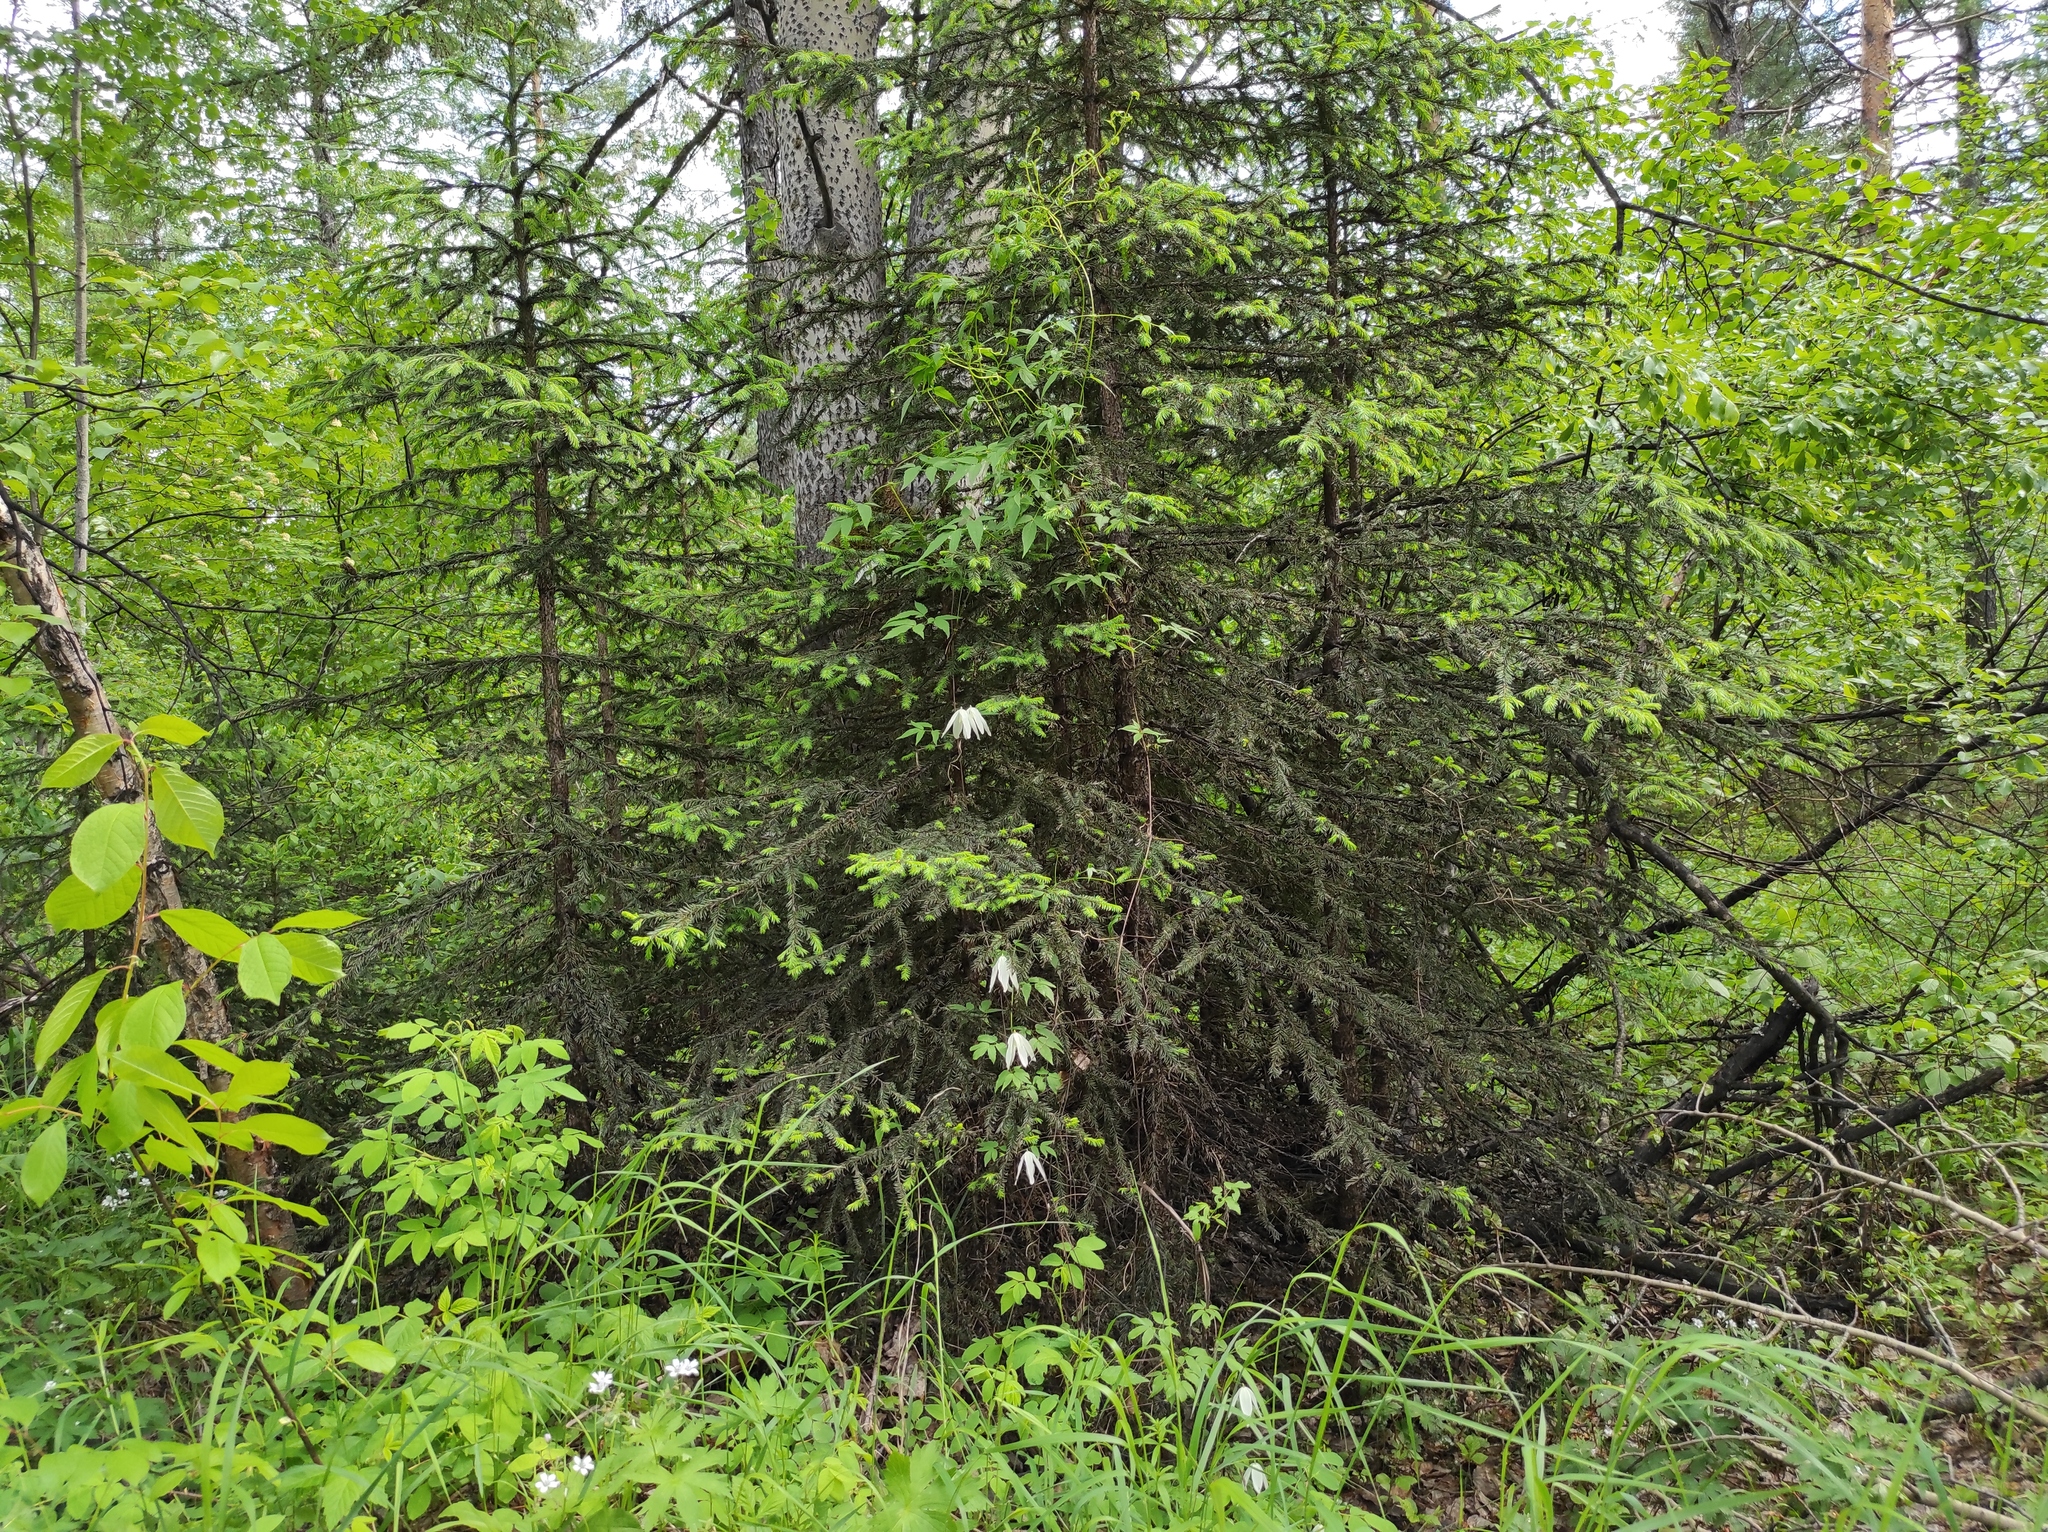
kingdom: Plantae
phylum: Tracheophyta
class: Magnoliopsida
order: Malpighiales
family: Salicaceae
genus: Populus
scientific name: Populus tremula
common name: European aspen
